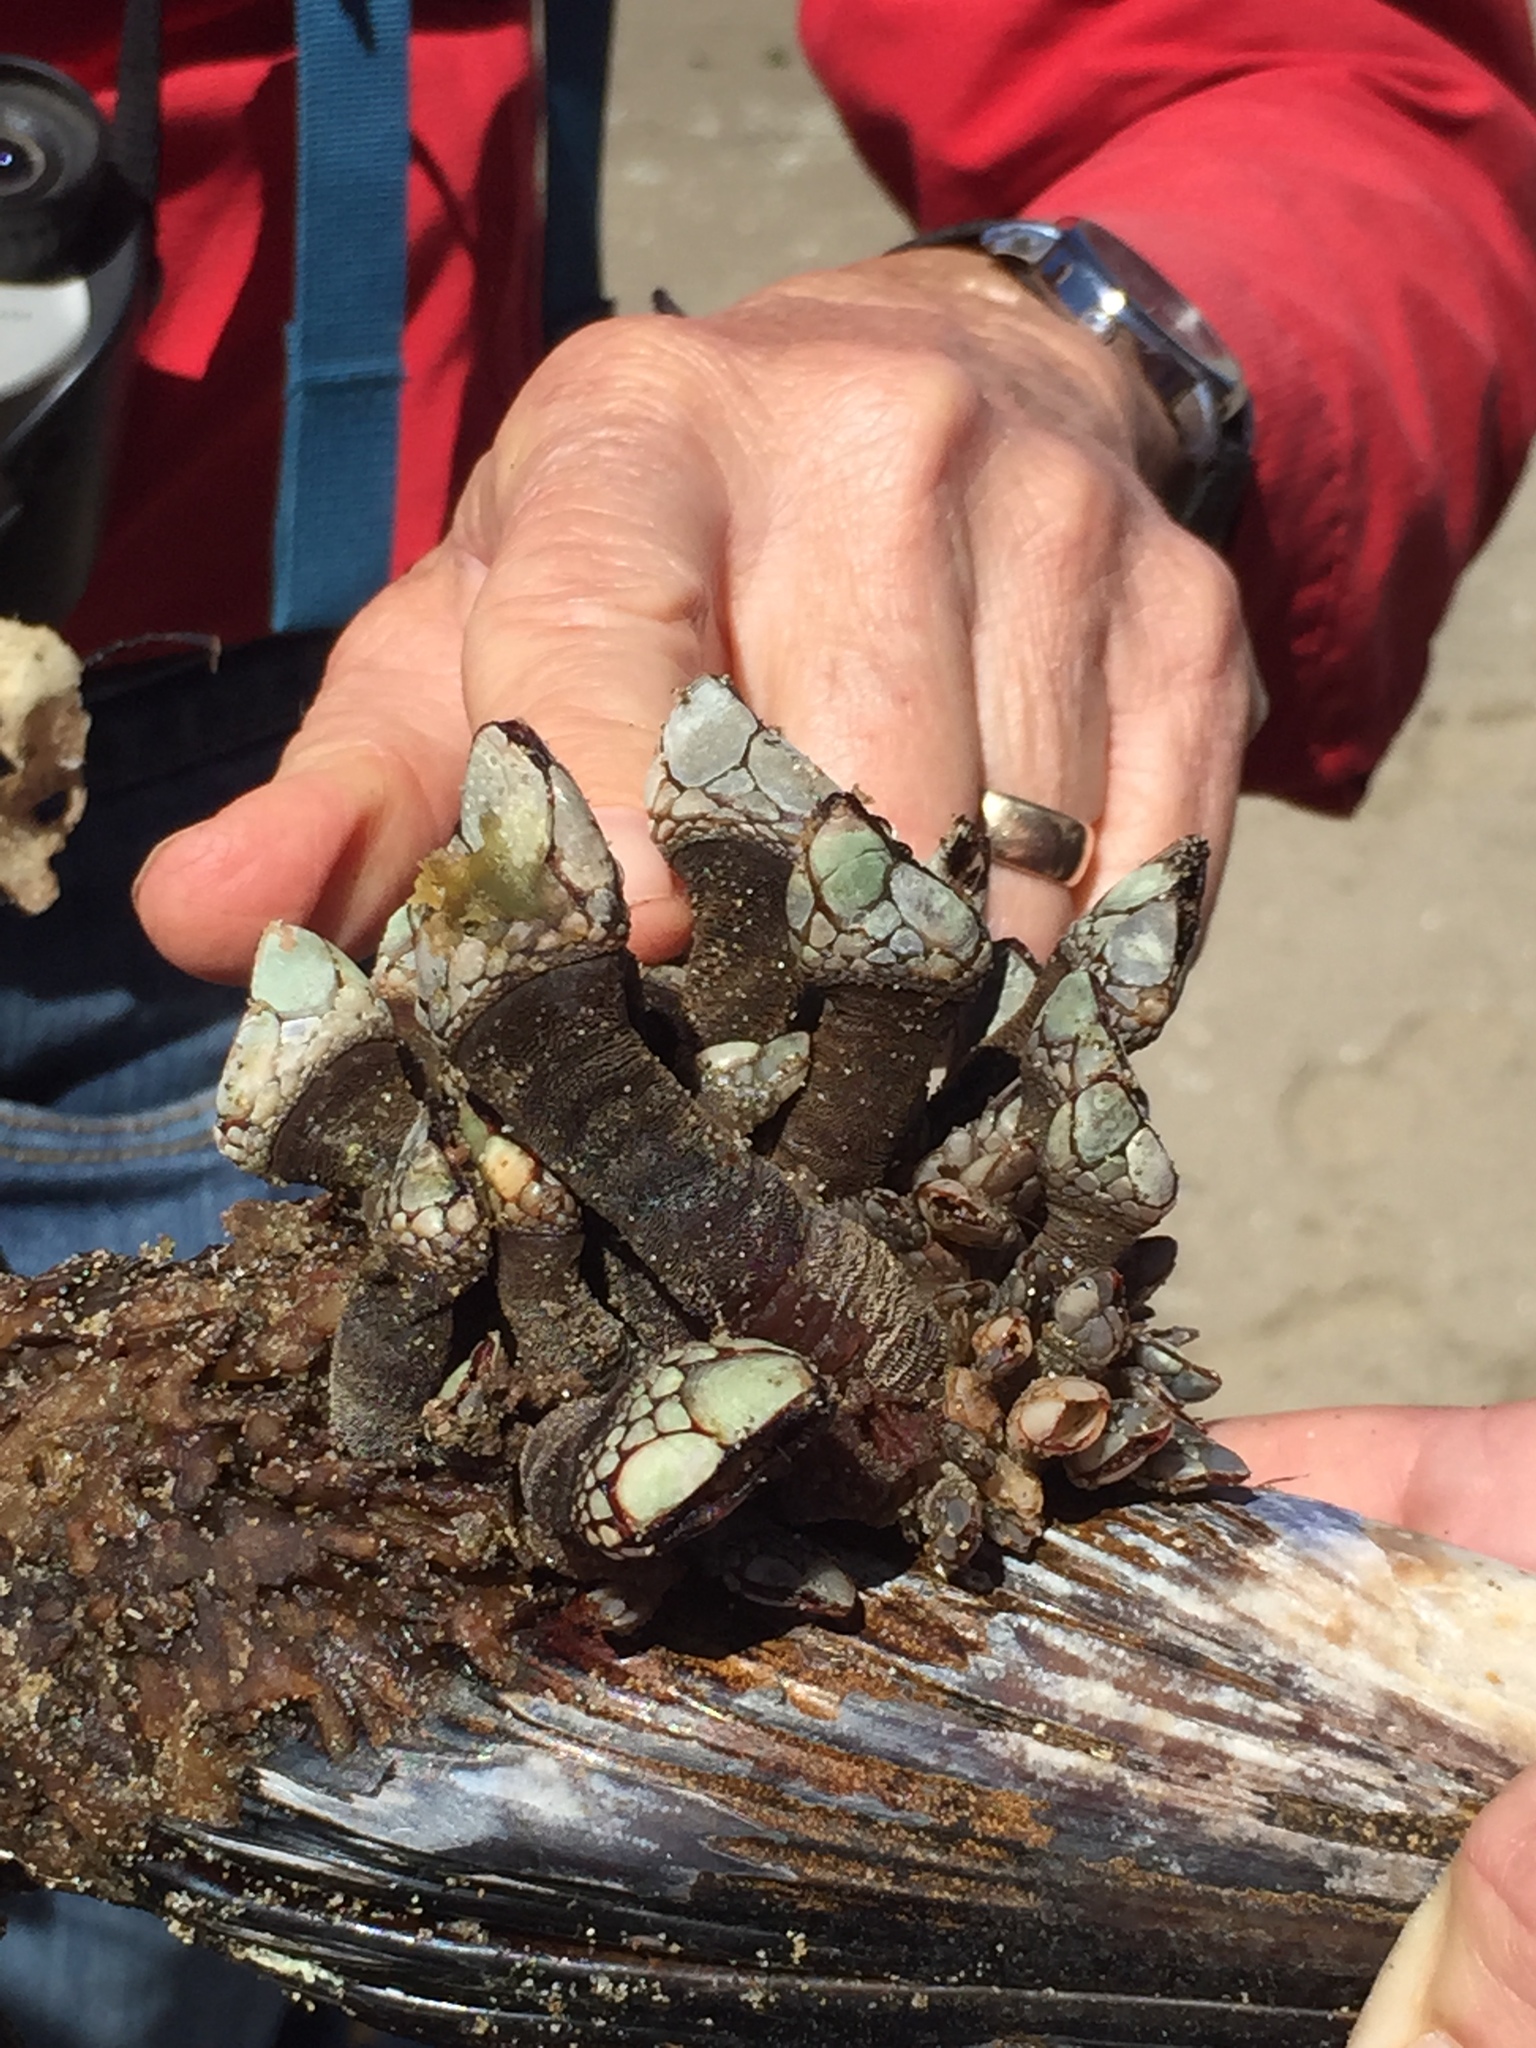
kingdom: Animalia
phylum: Arthropoda
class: Maxillopoda
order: Pedunculata
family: Pollicipedidae
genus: Pollicipes
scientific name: Pollicipes polymerus
